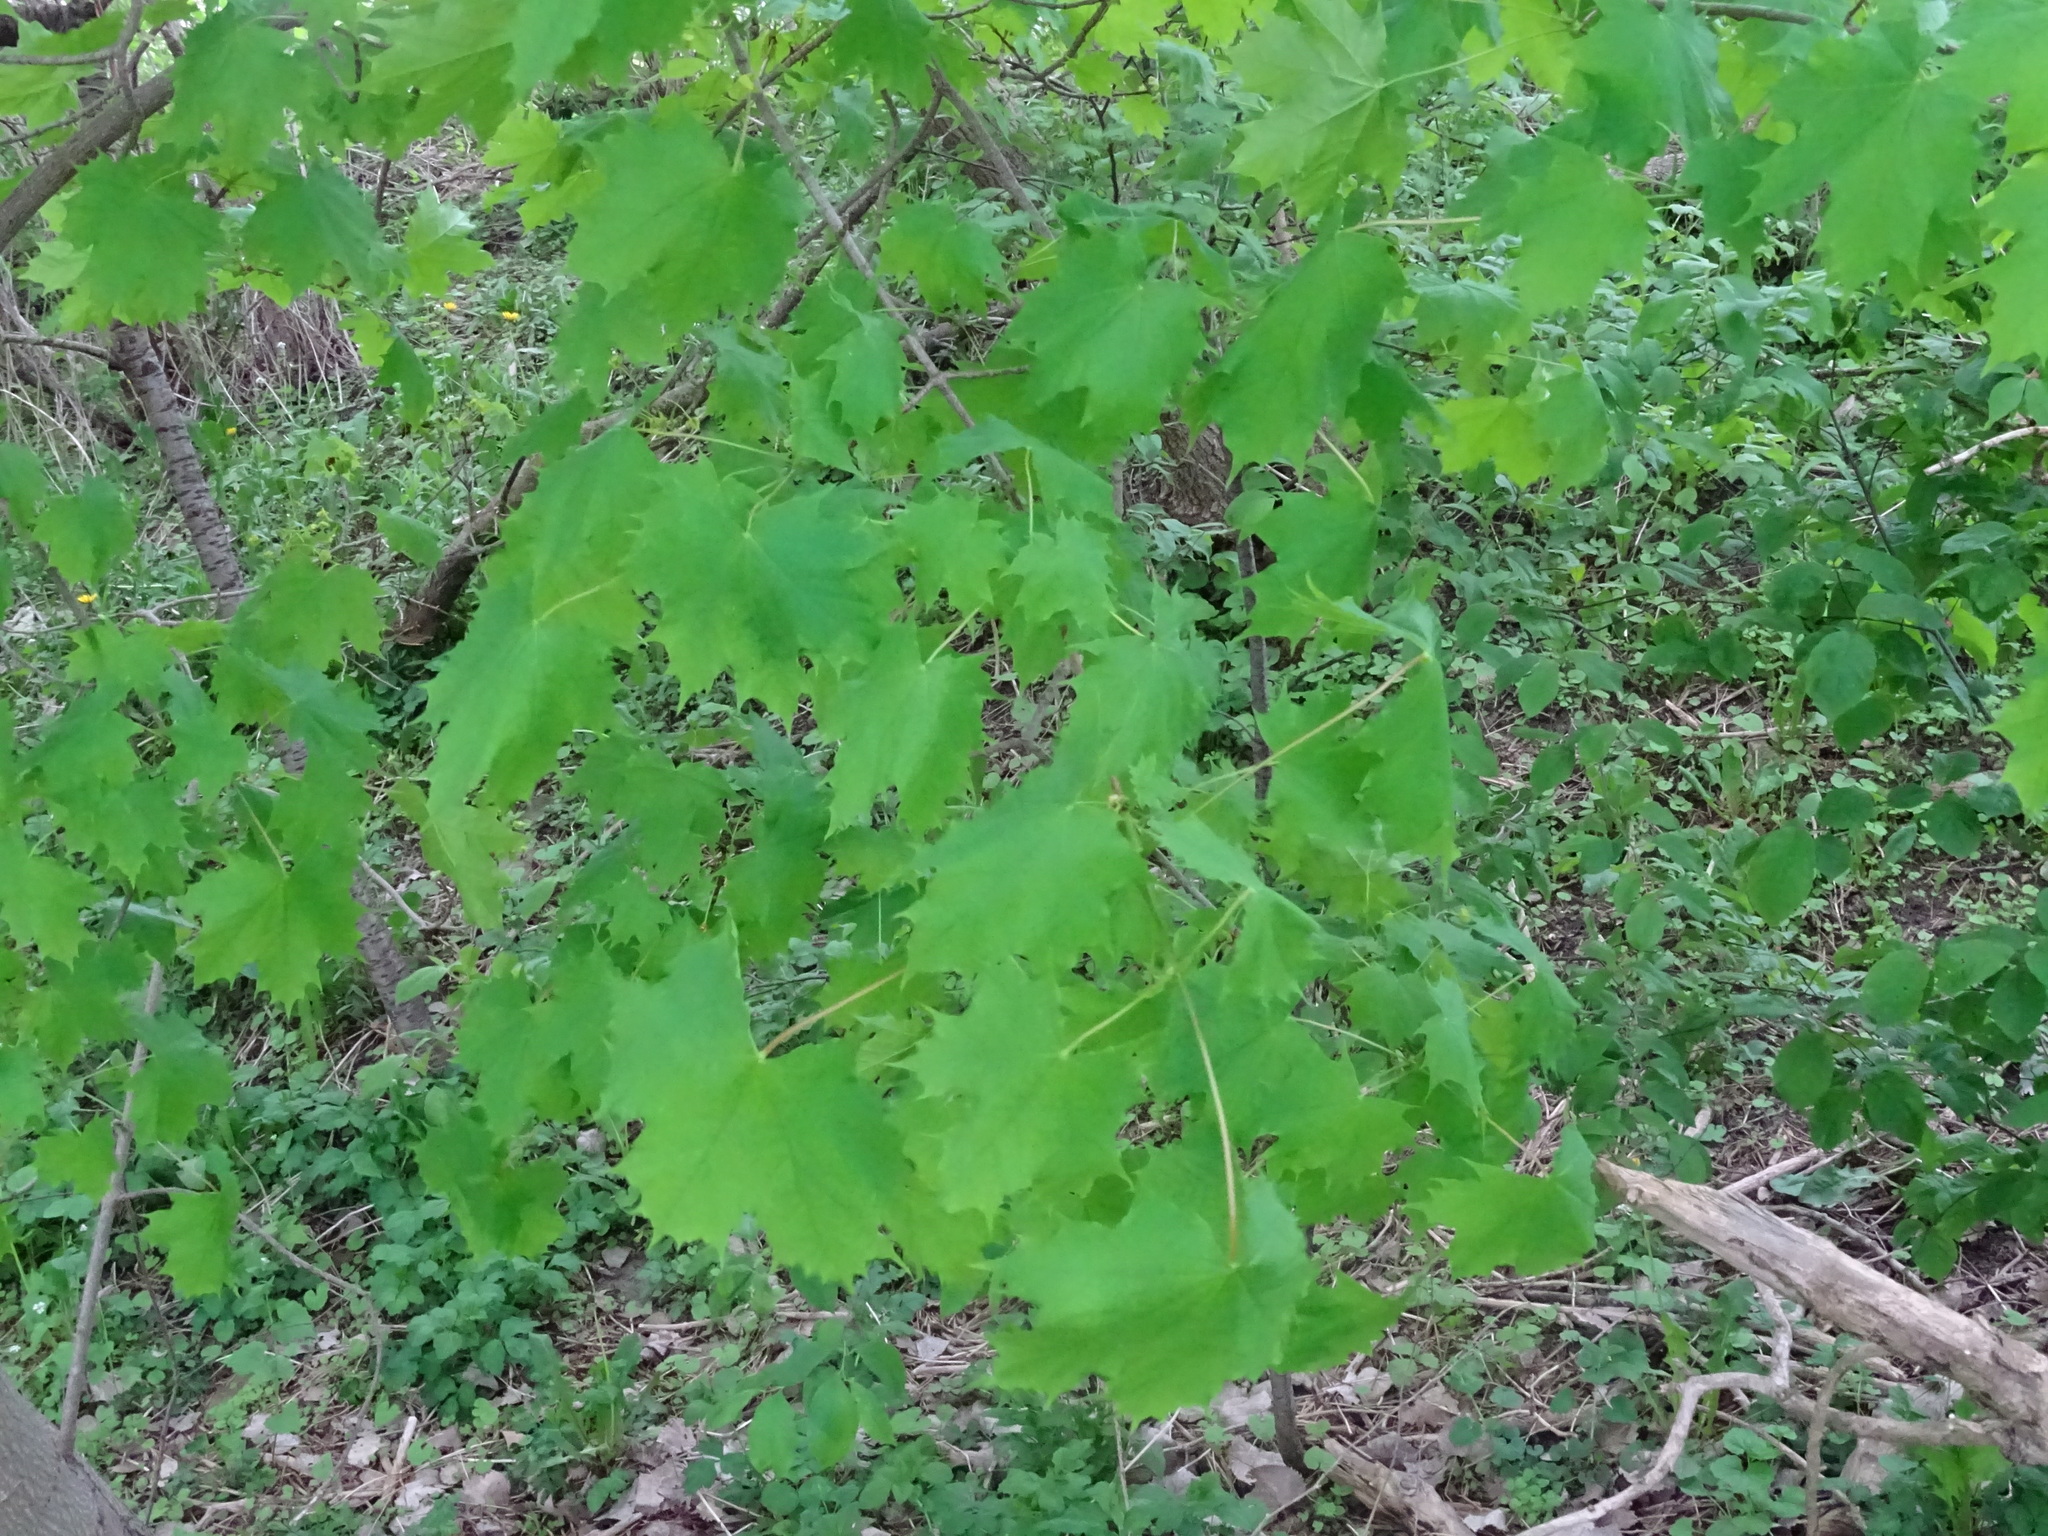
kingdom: Plantae
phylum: Tracheophyta
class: Magnoliopsida
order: Sapindales
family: Sapindaceae
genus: Acer
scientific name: Acer platanoides
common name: Norway maple
